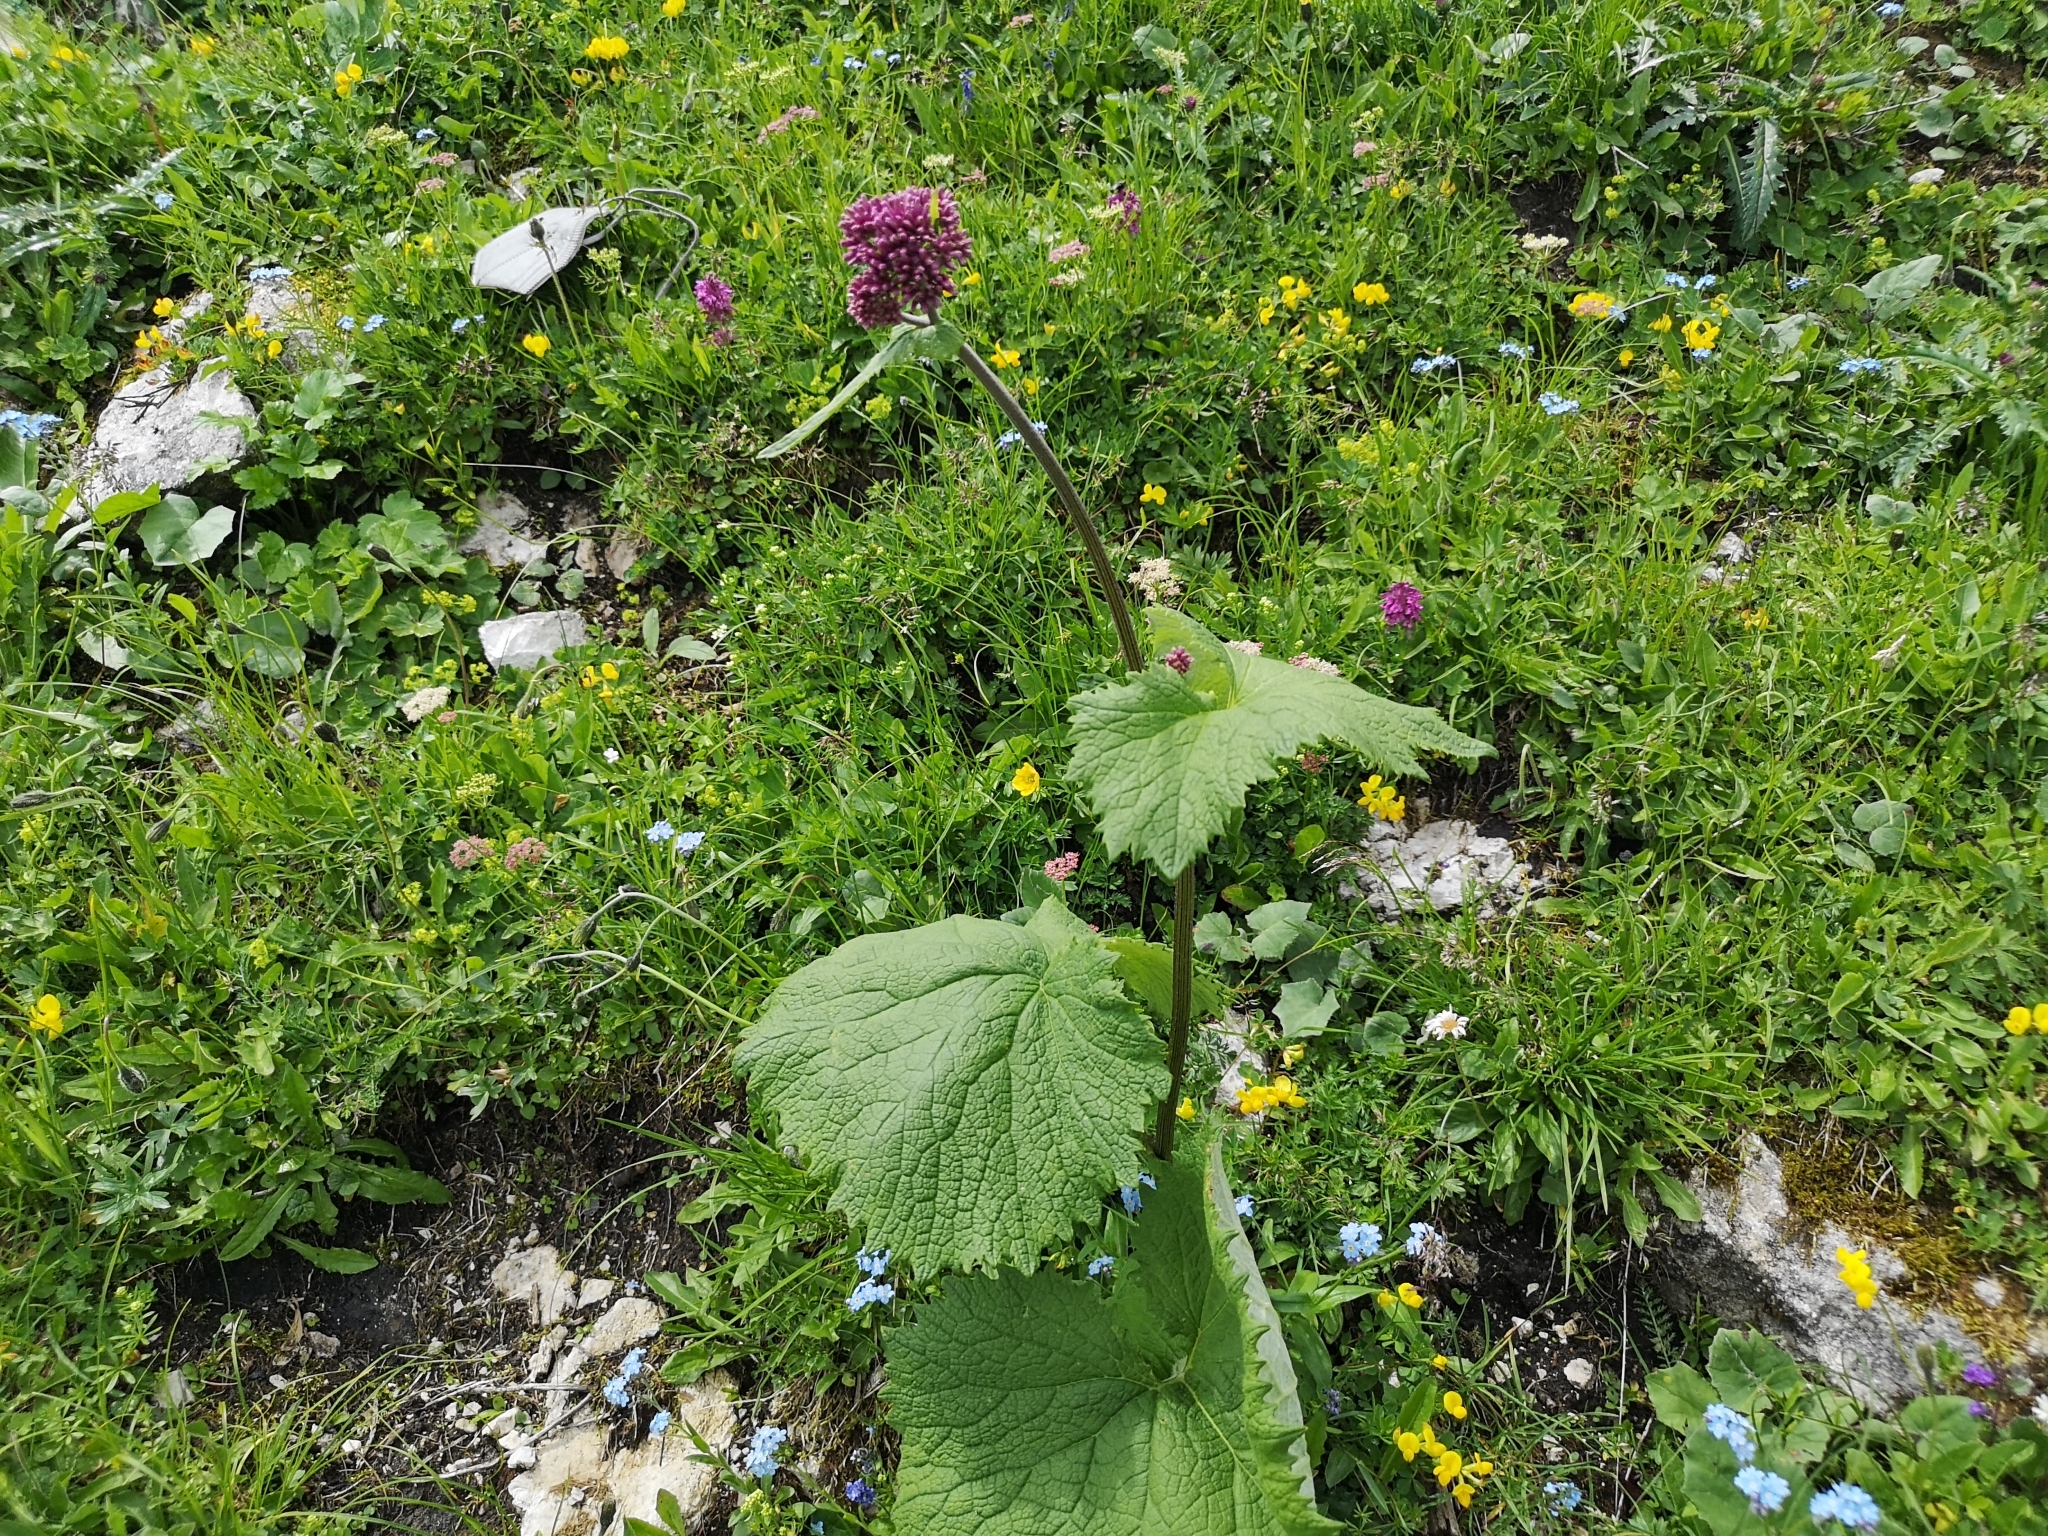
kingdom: Plantae
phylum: Tracheophyta
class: Magnoliopsida
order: Asterales
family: Asteraceae
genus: Adenostyles
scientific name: Adenostyles alliariae
